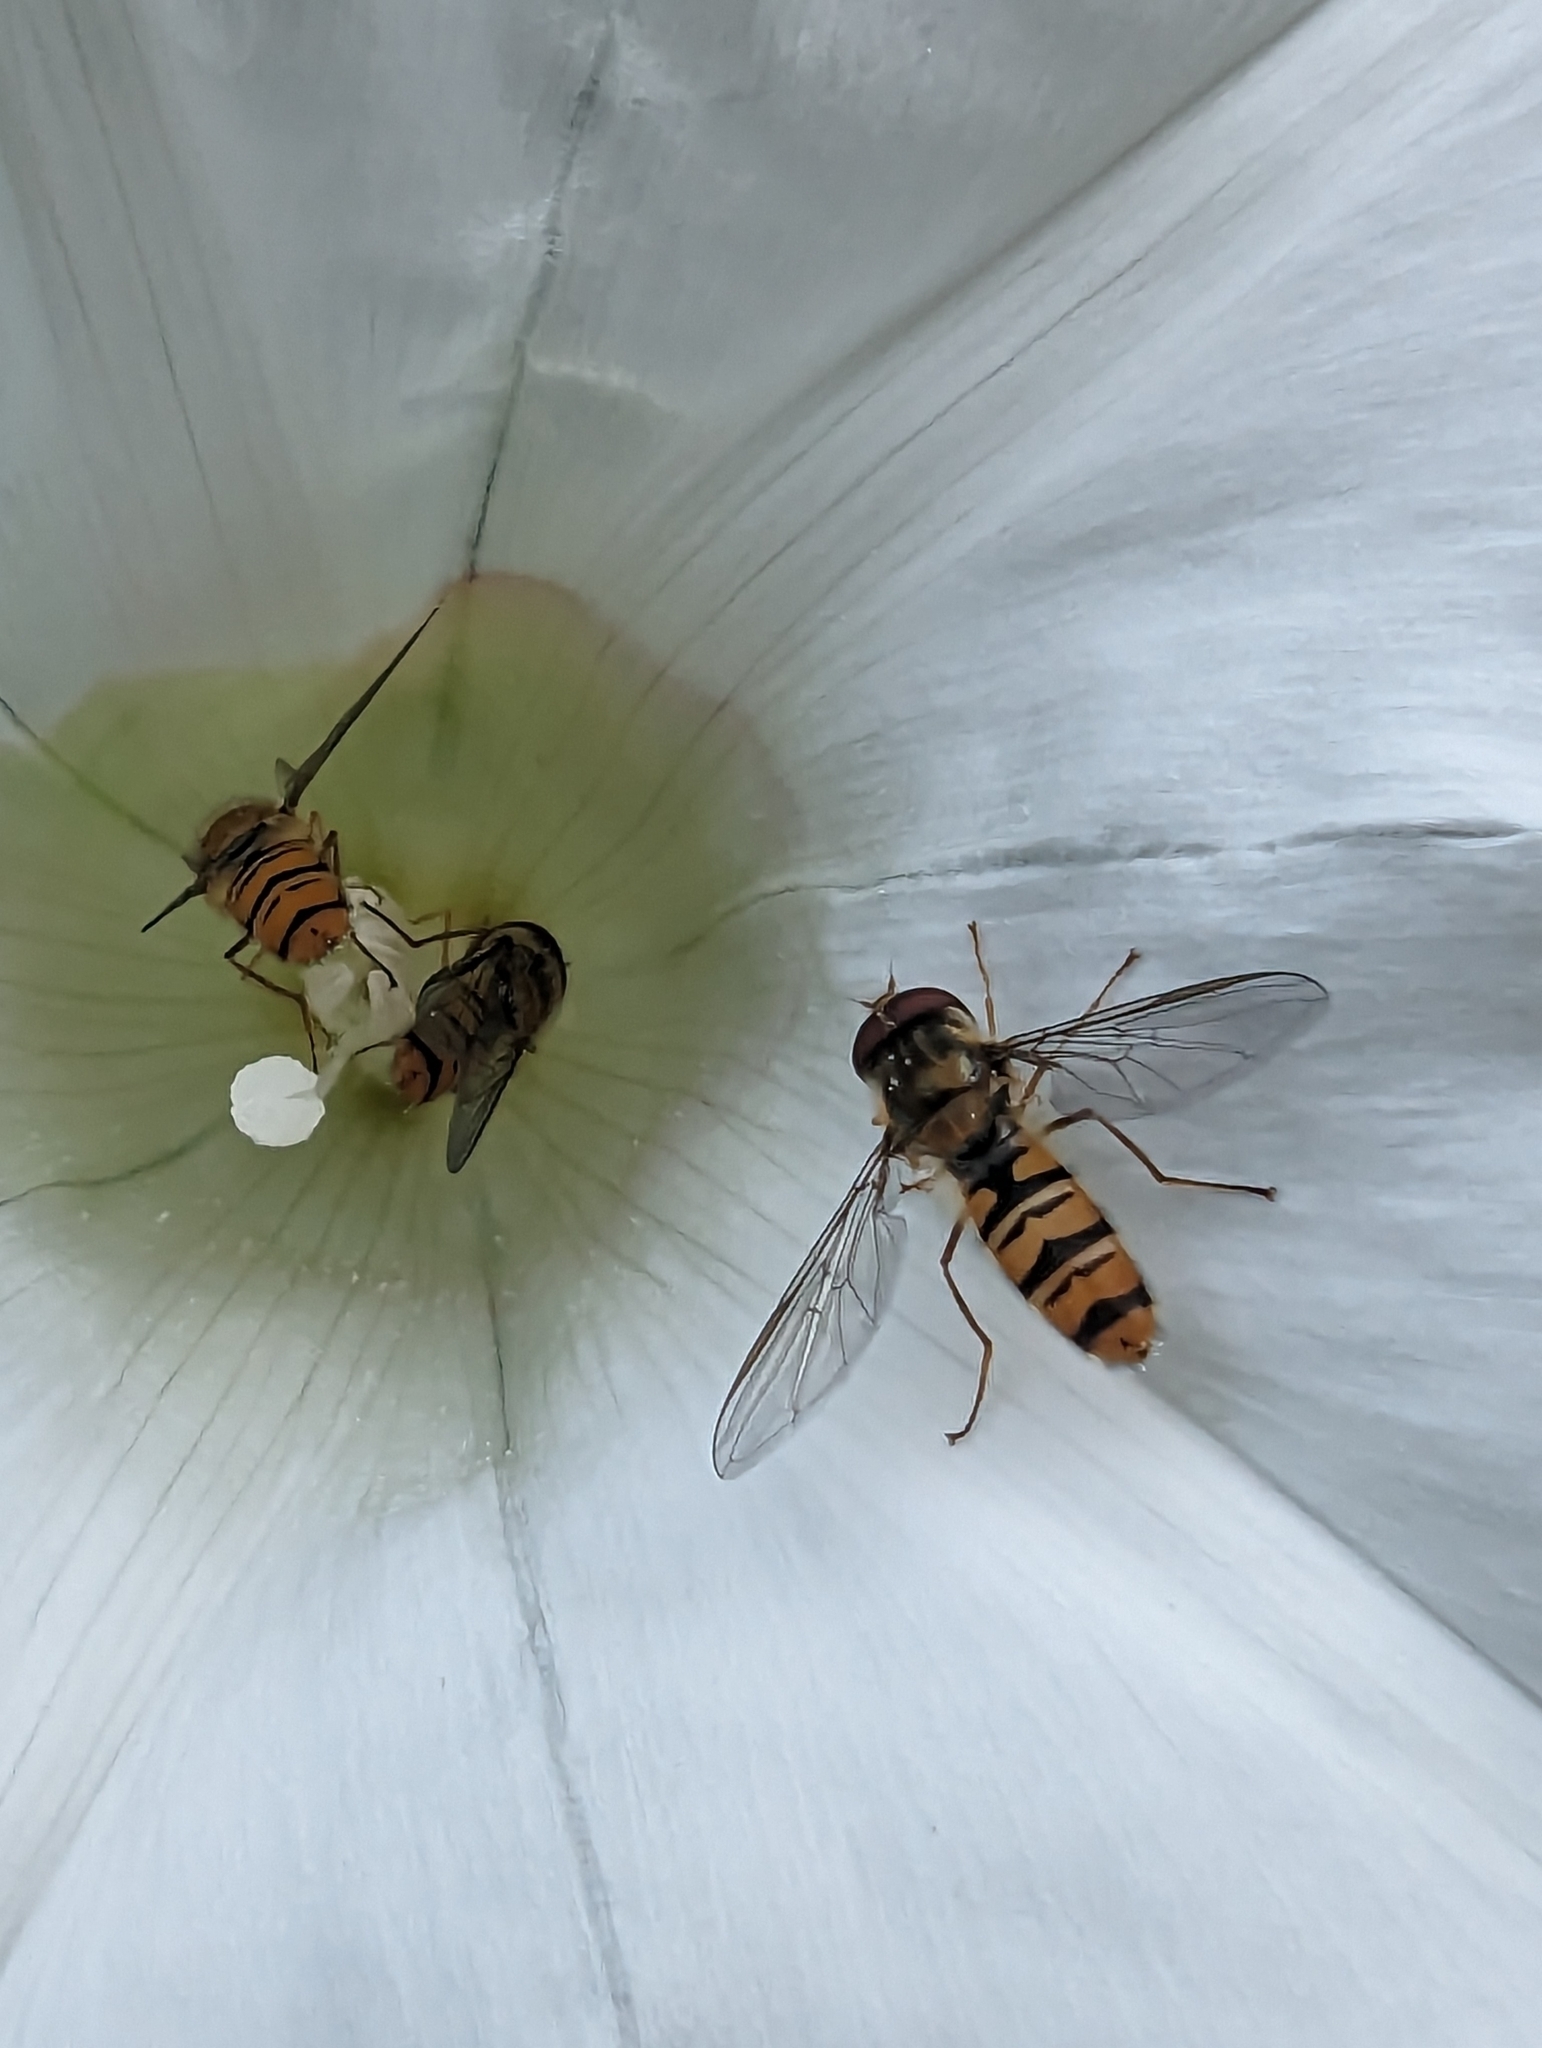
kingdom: Animalia
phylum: Arthropoda
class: Insecta
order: Diptera
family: Syrphidae
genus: Episyrphus
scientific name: Episyrphus balteatus
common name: Marmalade hoverfly
